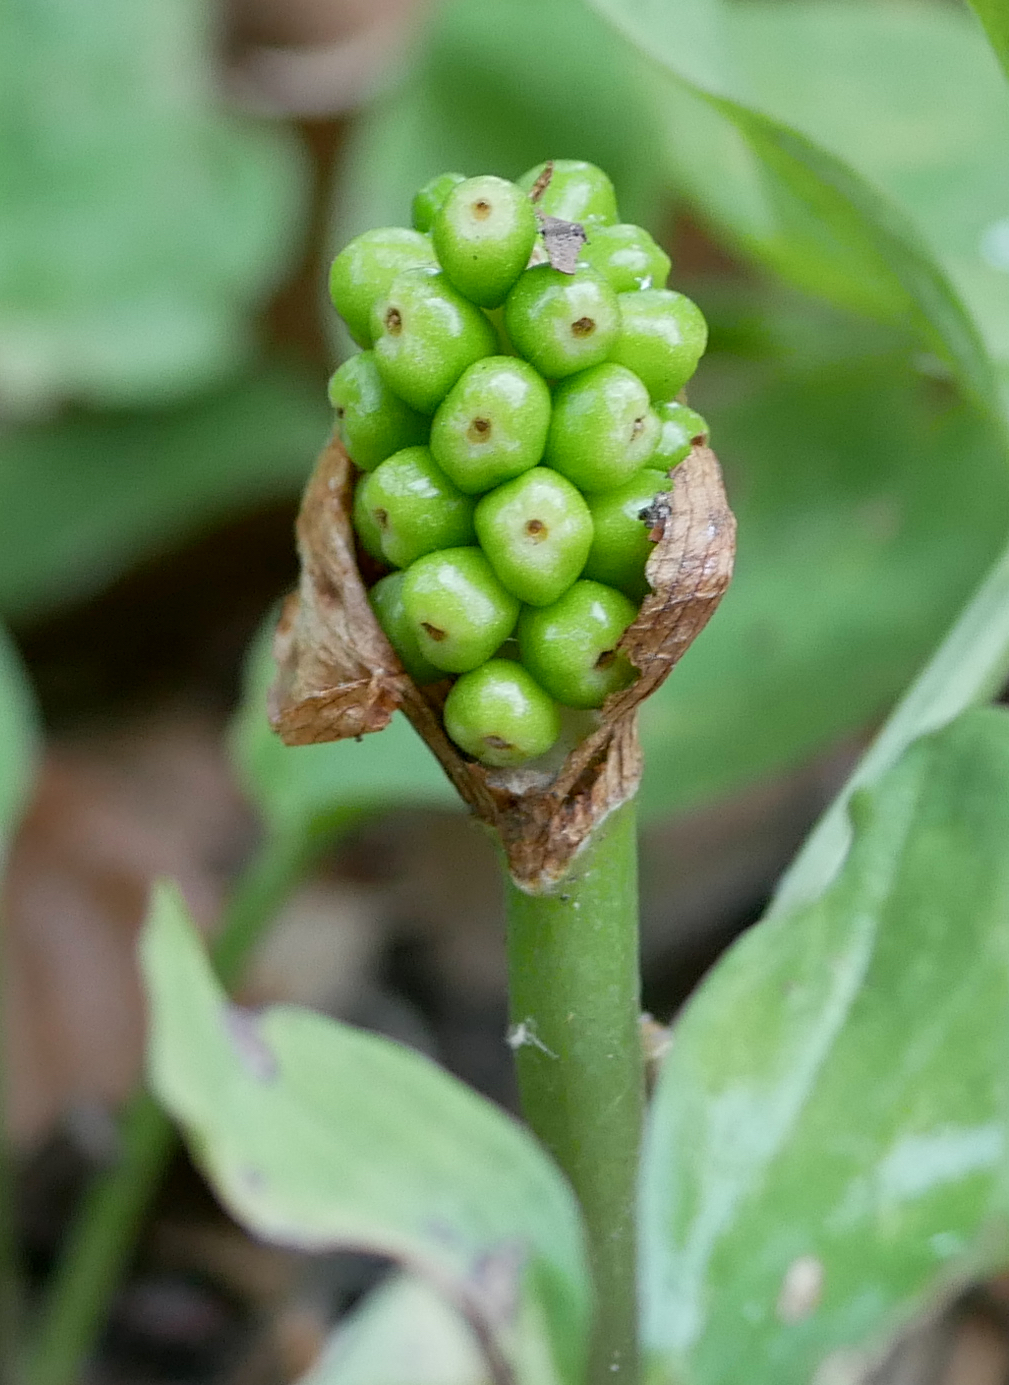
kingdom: Plantae
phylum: Tracheophyta
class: Liliopsida
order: Alismatales
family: Araceae
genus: Arum
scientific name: Arum maculatum
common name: Lords-and-ladies
